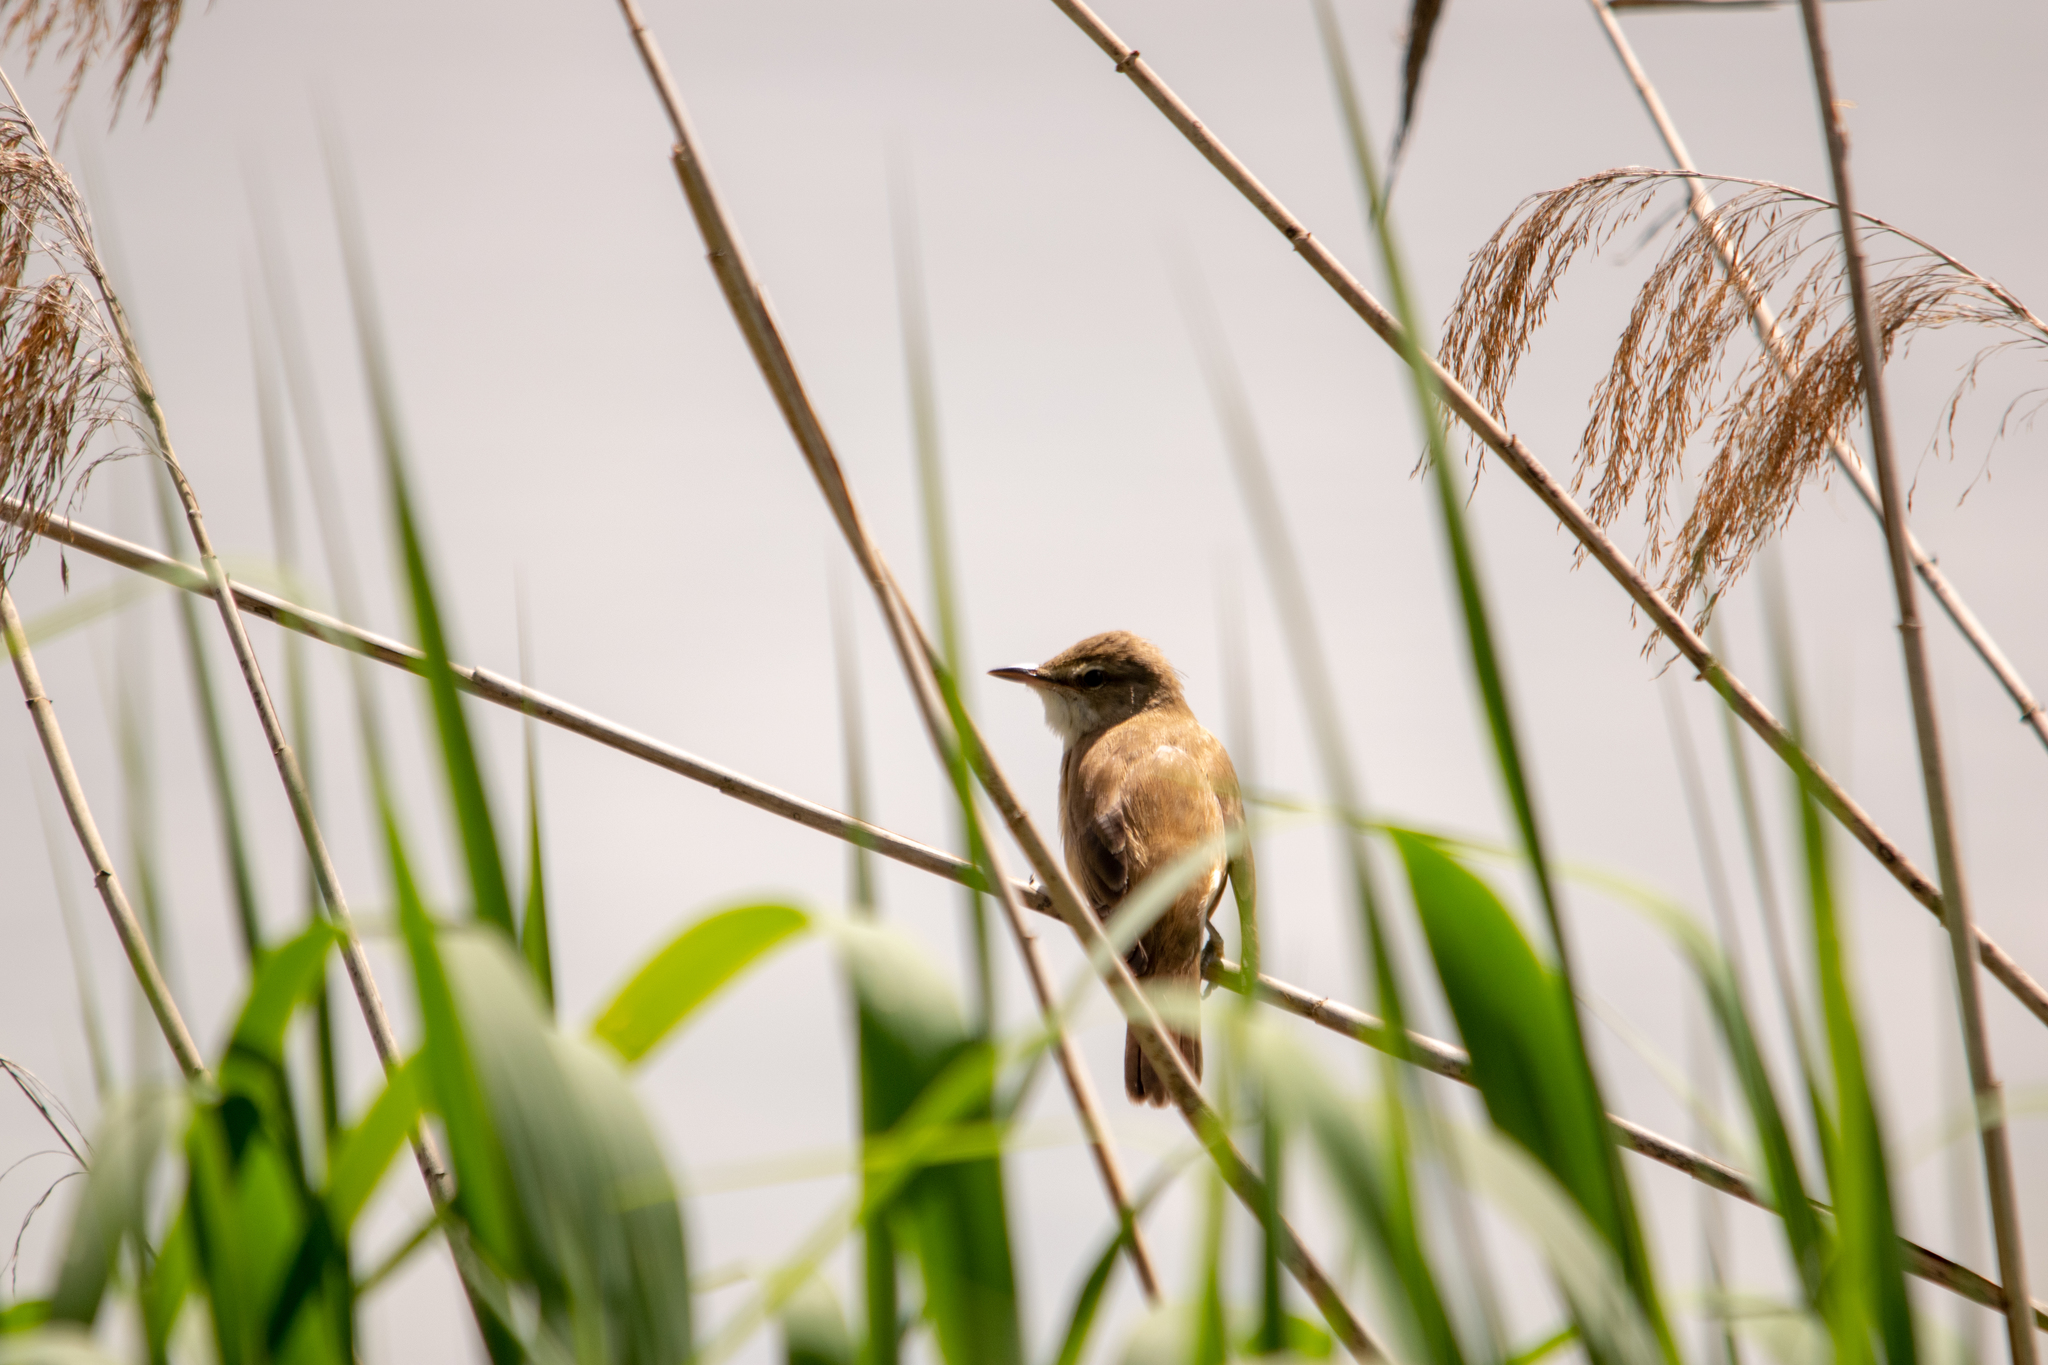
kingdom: Animalia
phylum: Chordata
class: Aves
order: Passeriformes
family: Acrocephalidae
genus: Acrocephalus
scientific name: Acrocephalus scirpaceus
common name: Eurasian reed warbler
